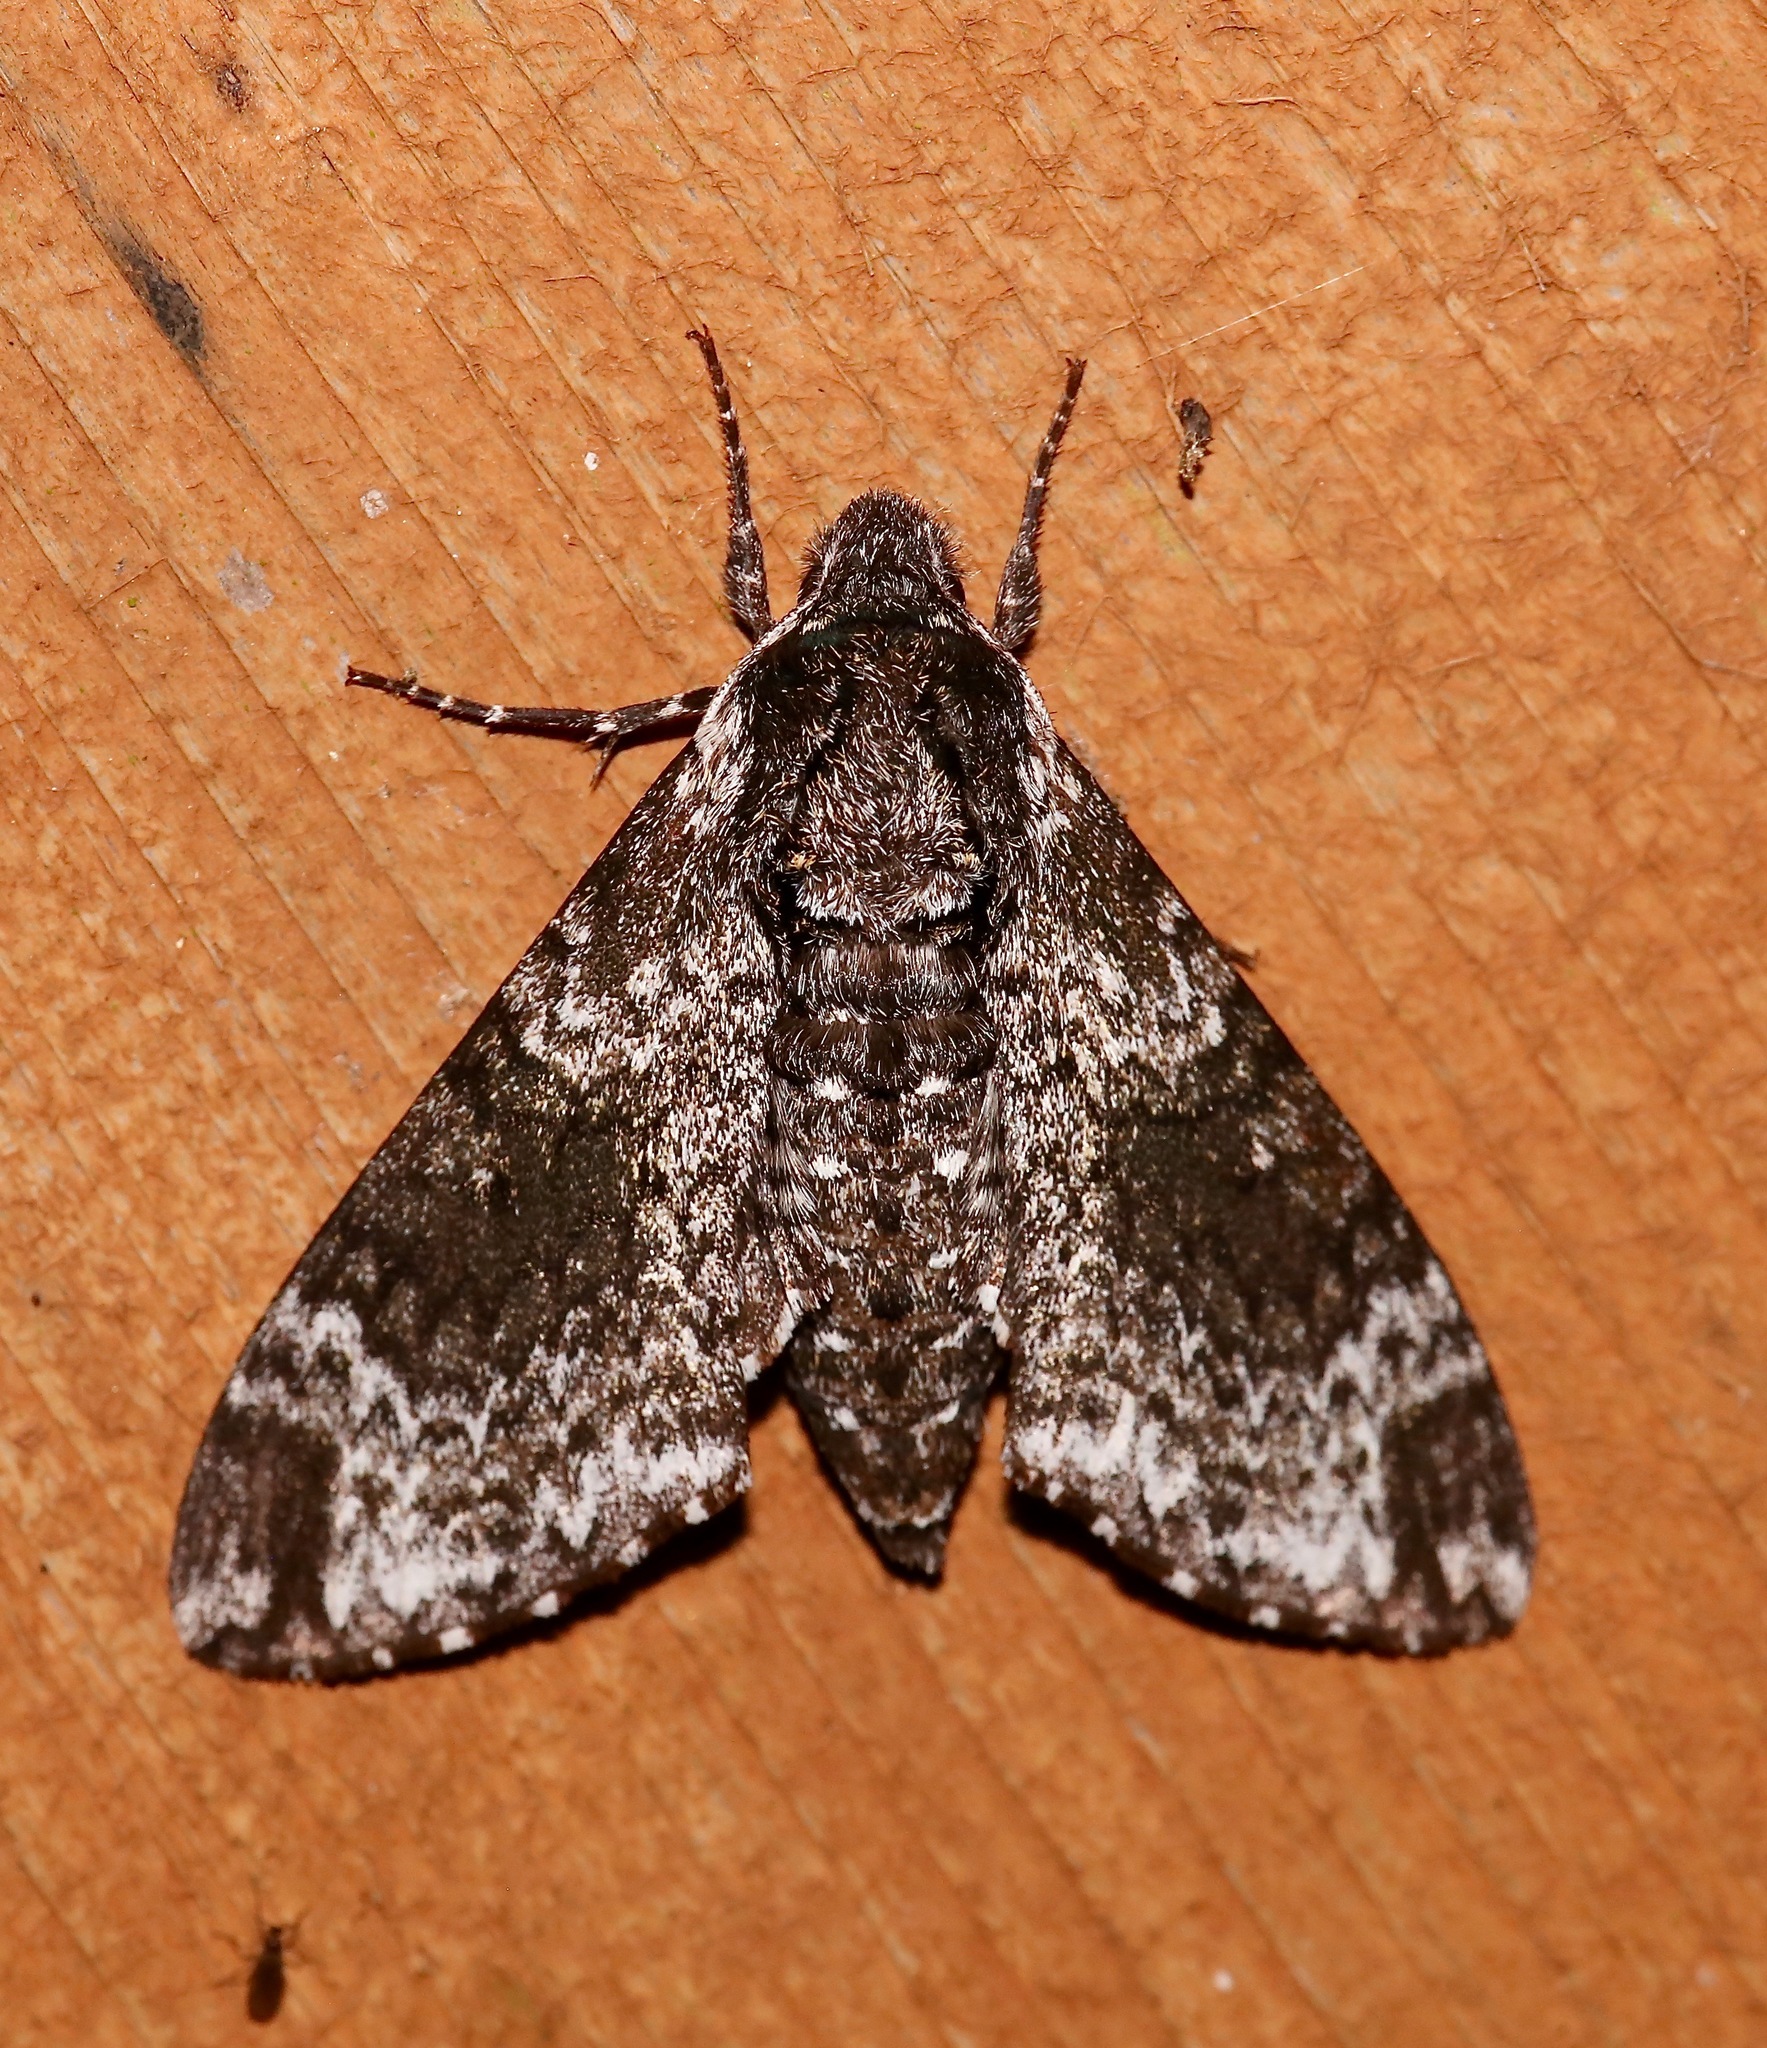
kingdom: Animalia
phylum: Arthropoda
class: Insecta
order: Lepidoptera
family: Sphingidae
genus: Dolba
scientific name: Dolba hyloeus
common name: Pawpaw sphinx
